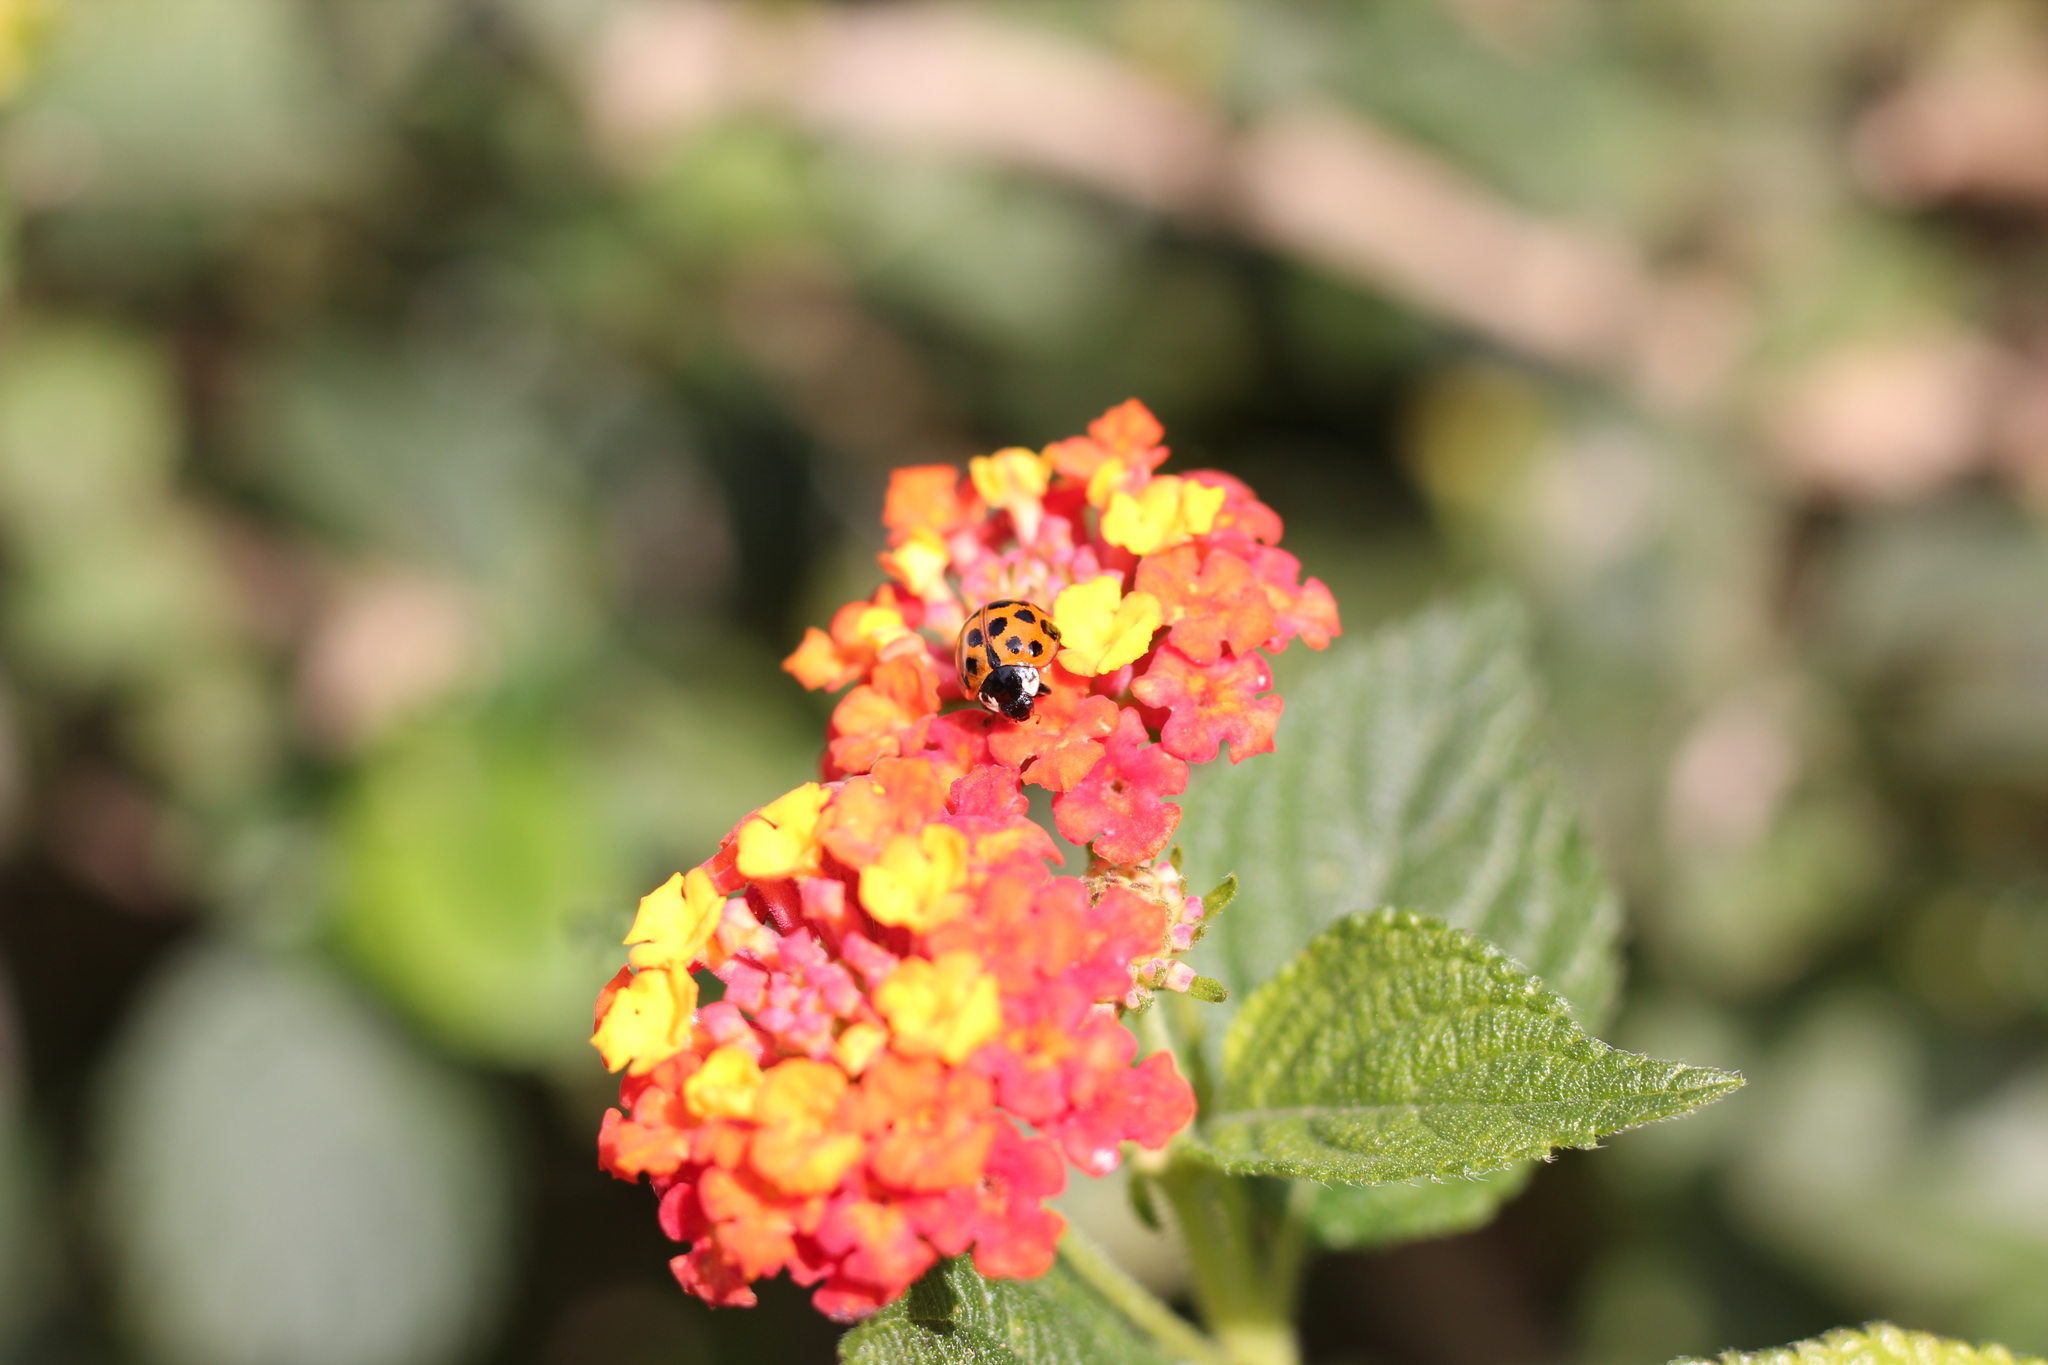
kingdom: Animalia
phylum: Arthropoda
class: Insecta
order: Coleoptera
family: Coccinellidae
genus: Harmonia
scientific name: Harmonia axyridis
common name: Harlequin ladybird
